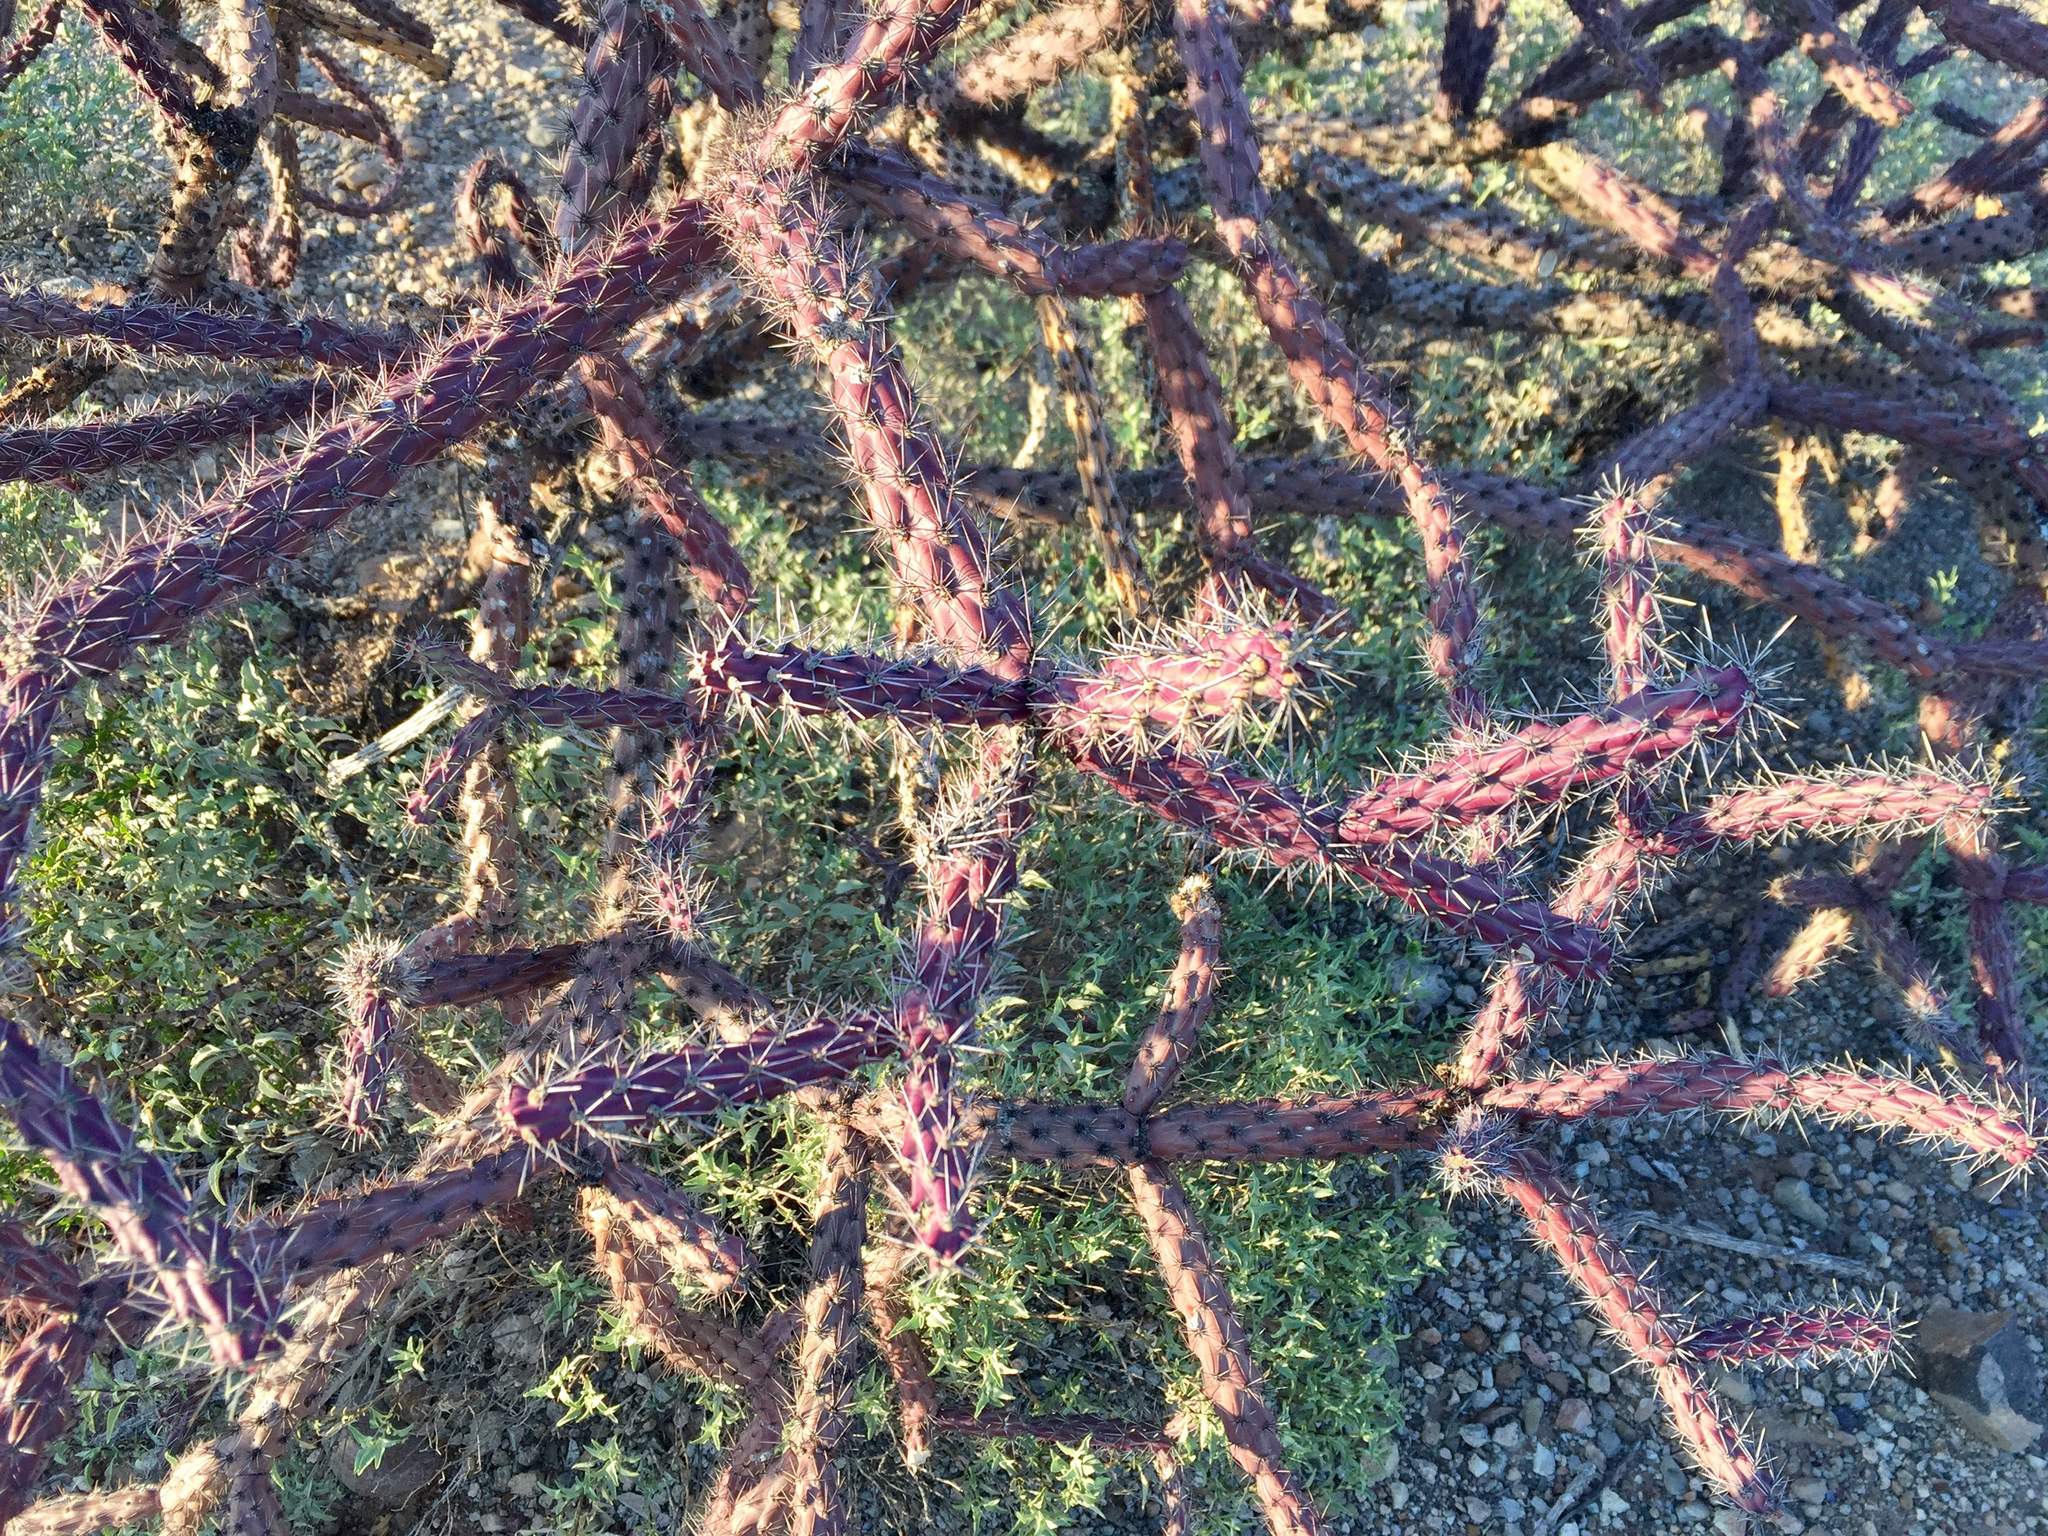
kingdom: Plantae
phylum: Tracheophyta
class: Magnoliopsida
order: Caryophyllales
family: Cactaceae
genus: Cylindropuntia
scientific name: Cylindropuntia thurberi
